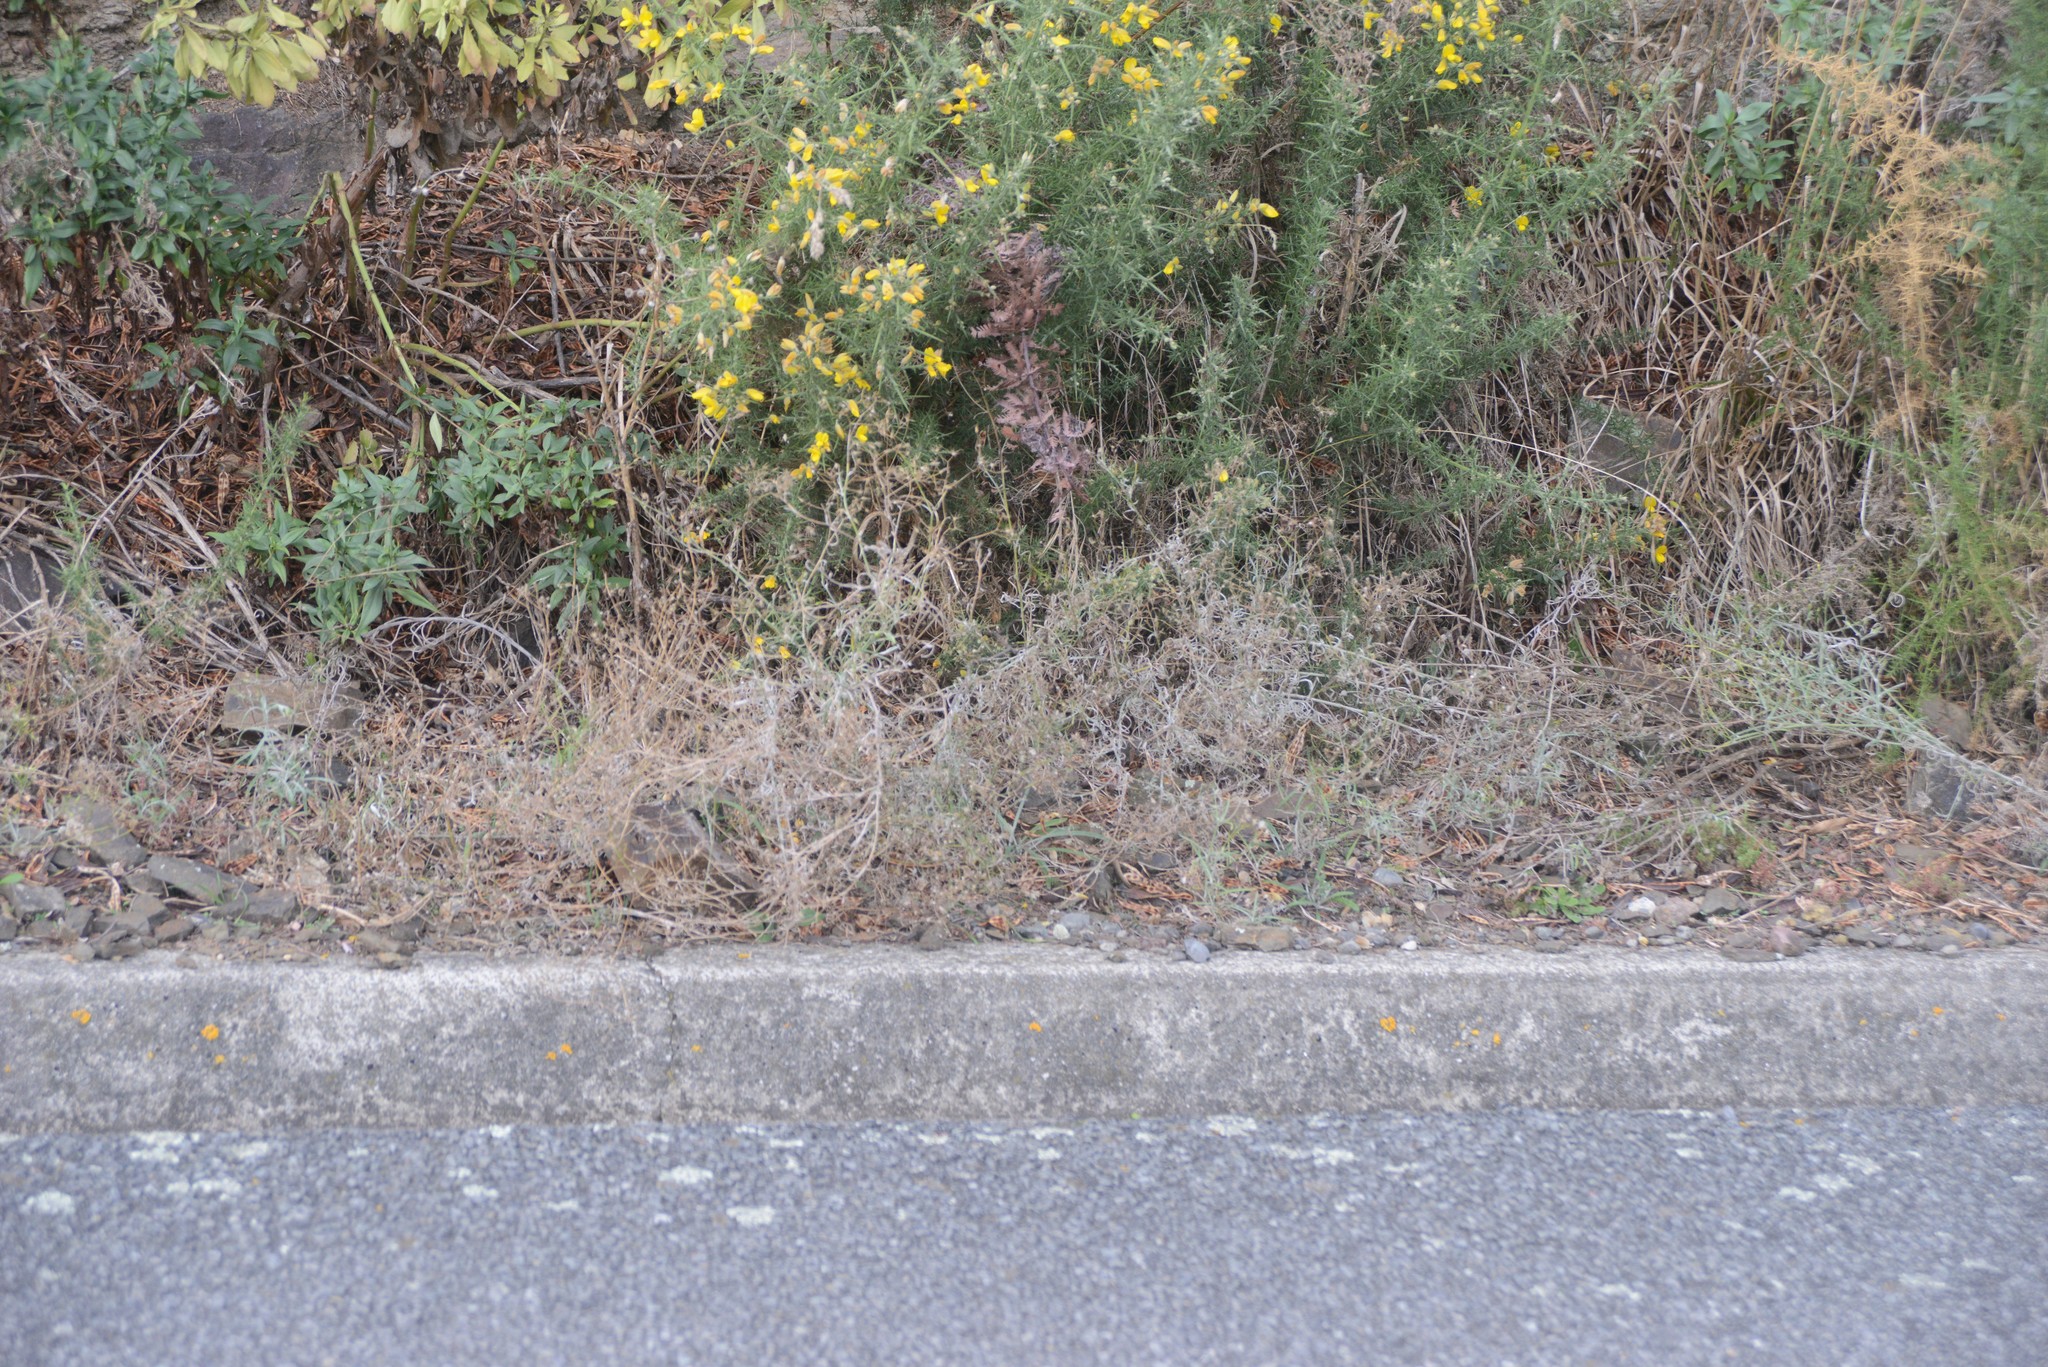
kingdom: Plantae
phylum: Tracheophyta
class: Magnoliopsida
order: Asterales
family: Asteraceae
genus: Senecio
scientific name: Senecio quadridentatus
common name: Cotton fireweed
